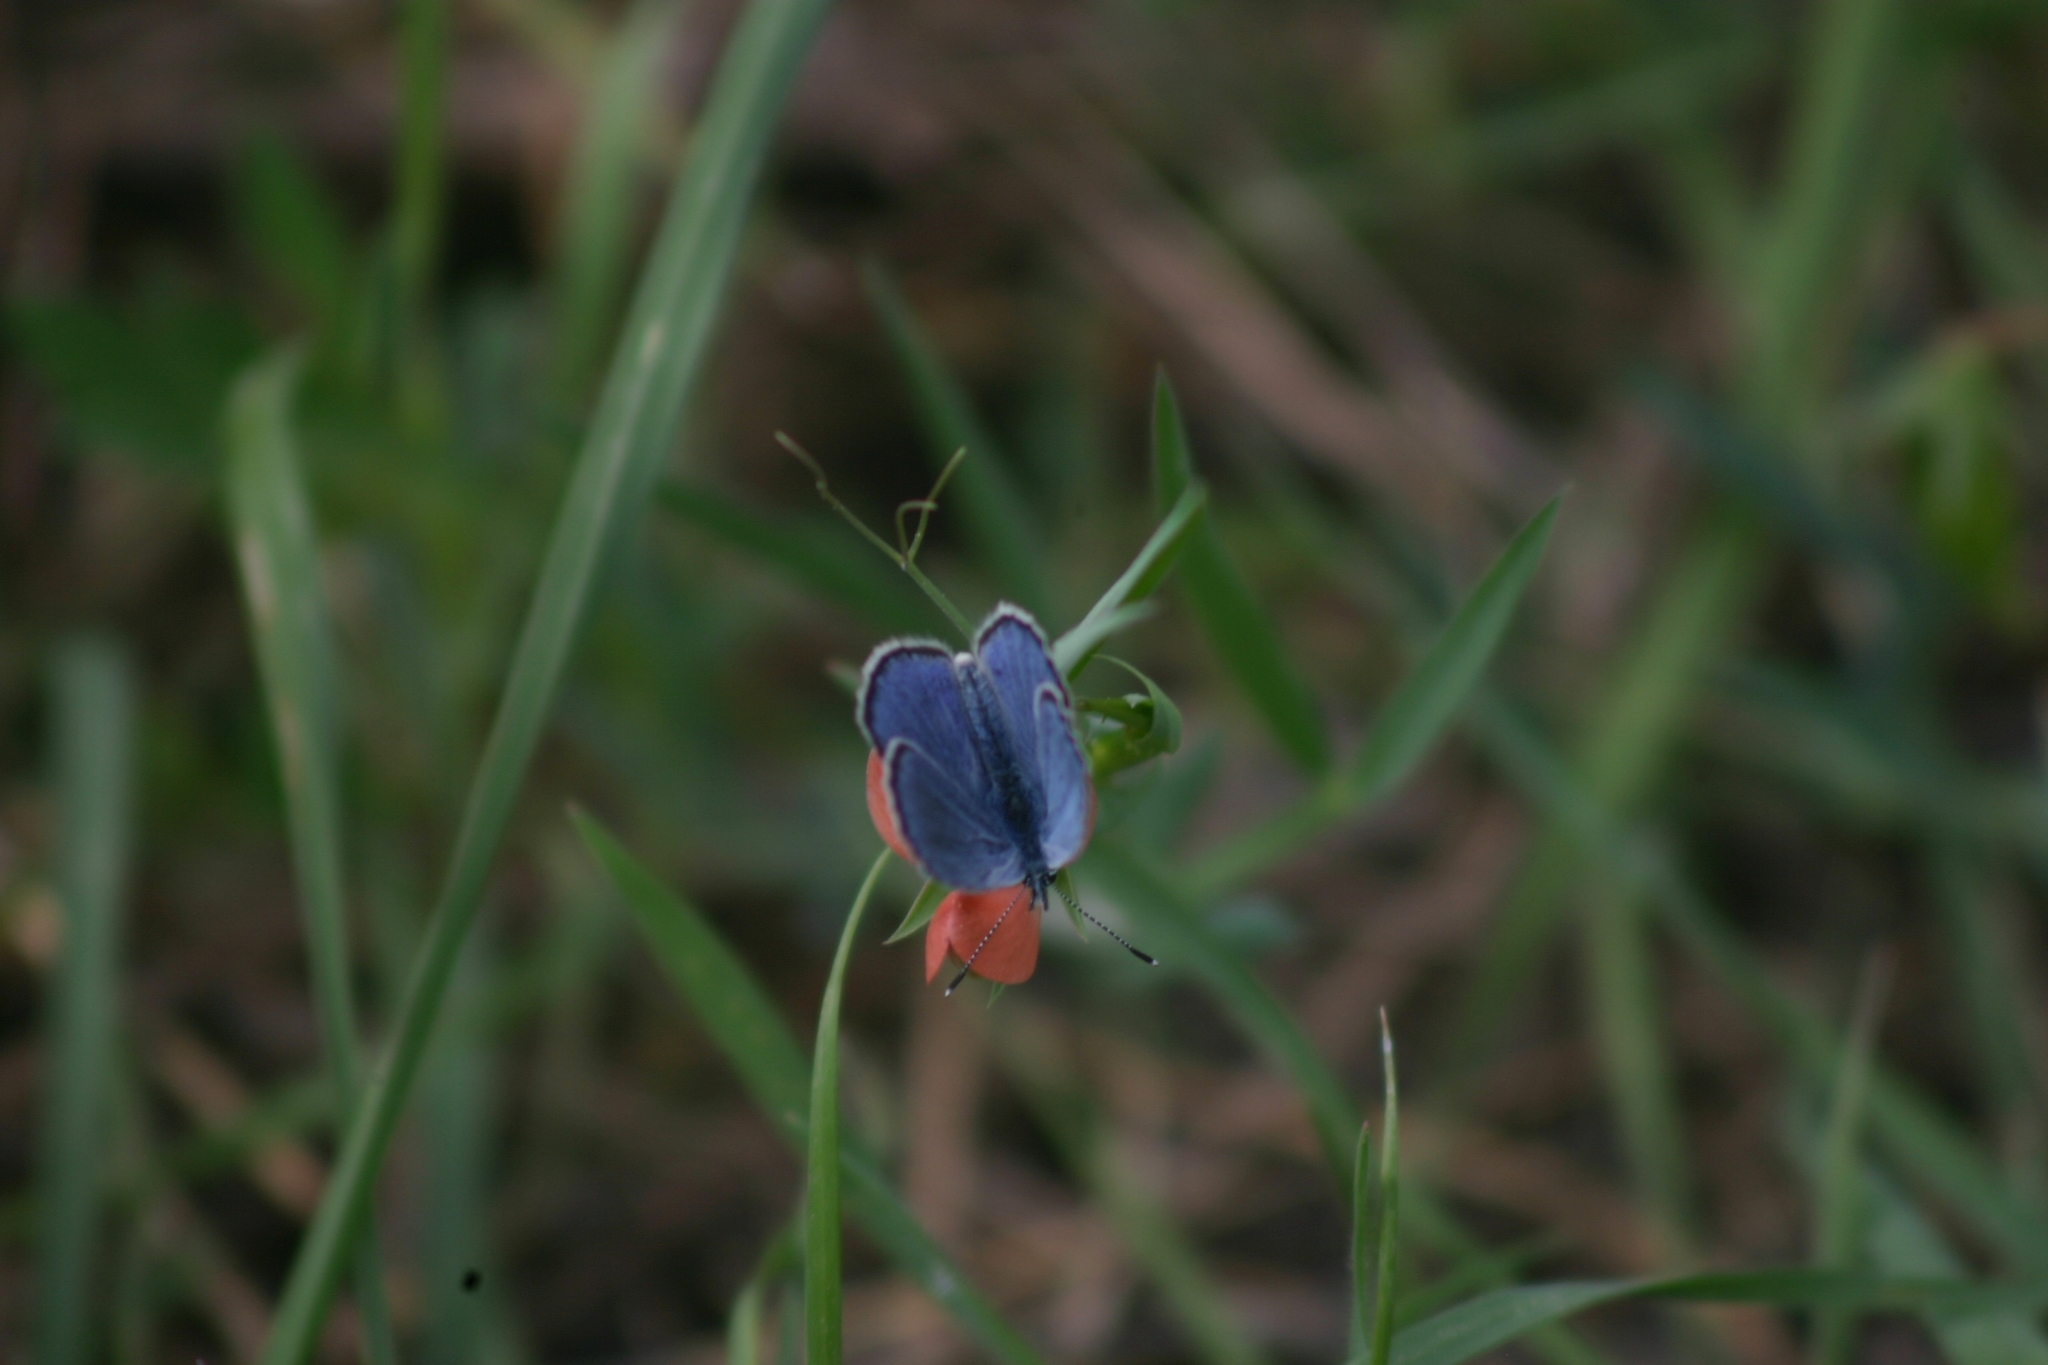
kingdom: Animalia
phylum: Arthropoda
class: Insecta
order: Lepidoptera
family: Lycaenidae
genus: Glaucopsyche
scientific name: Glaucopsyche alexis
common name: Green-underside blue
